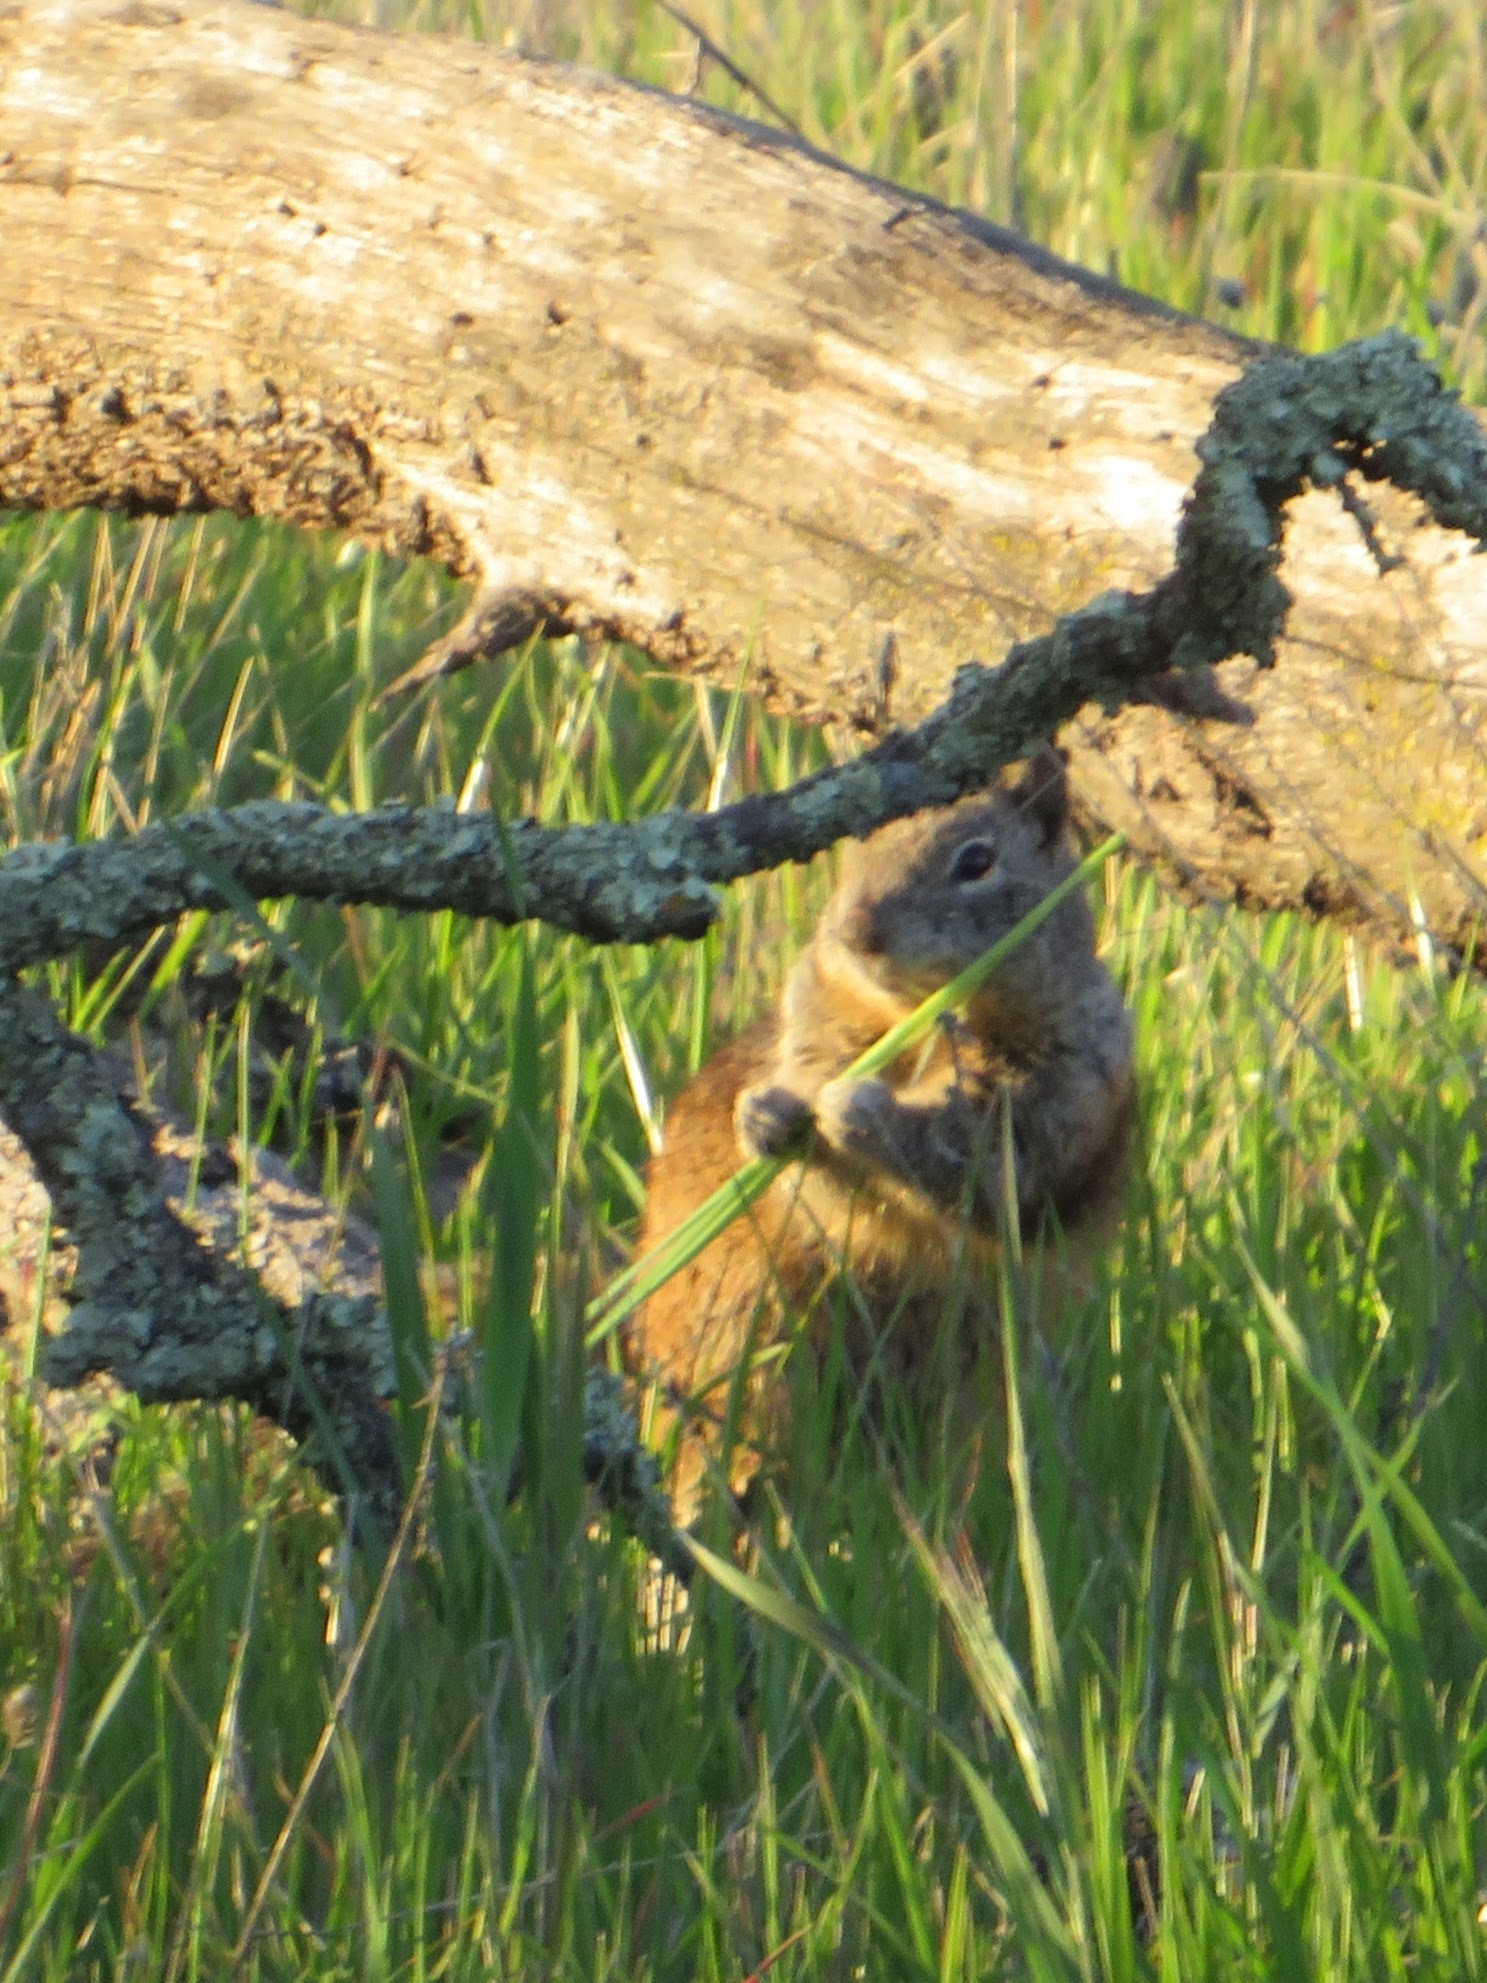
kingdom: Animalia
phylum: Chordata
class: Mammalia
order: Rodentia
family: Sciuridae
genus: Otospermophilus
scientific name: Otospermophilus beecheyi
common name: California ground squirrel
